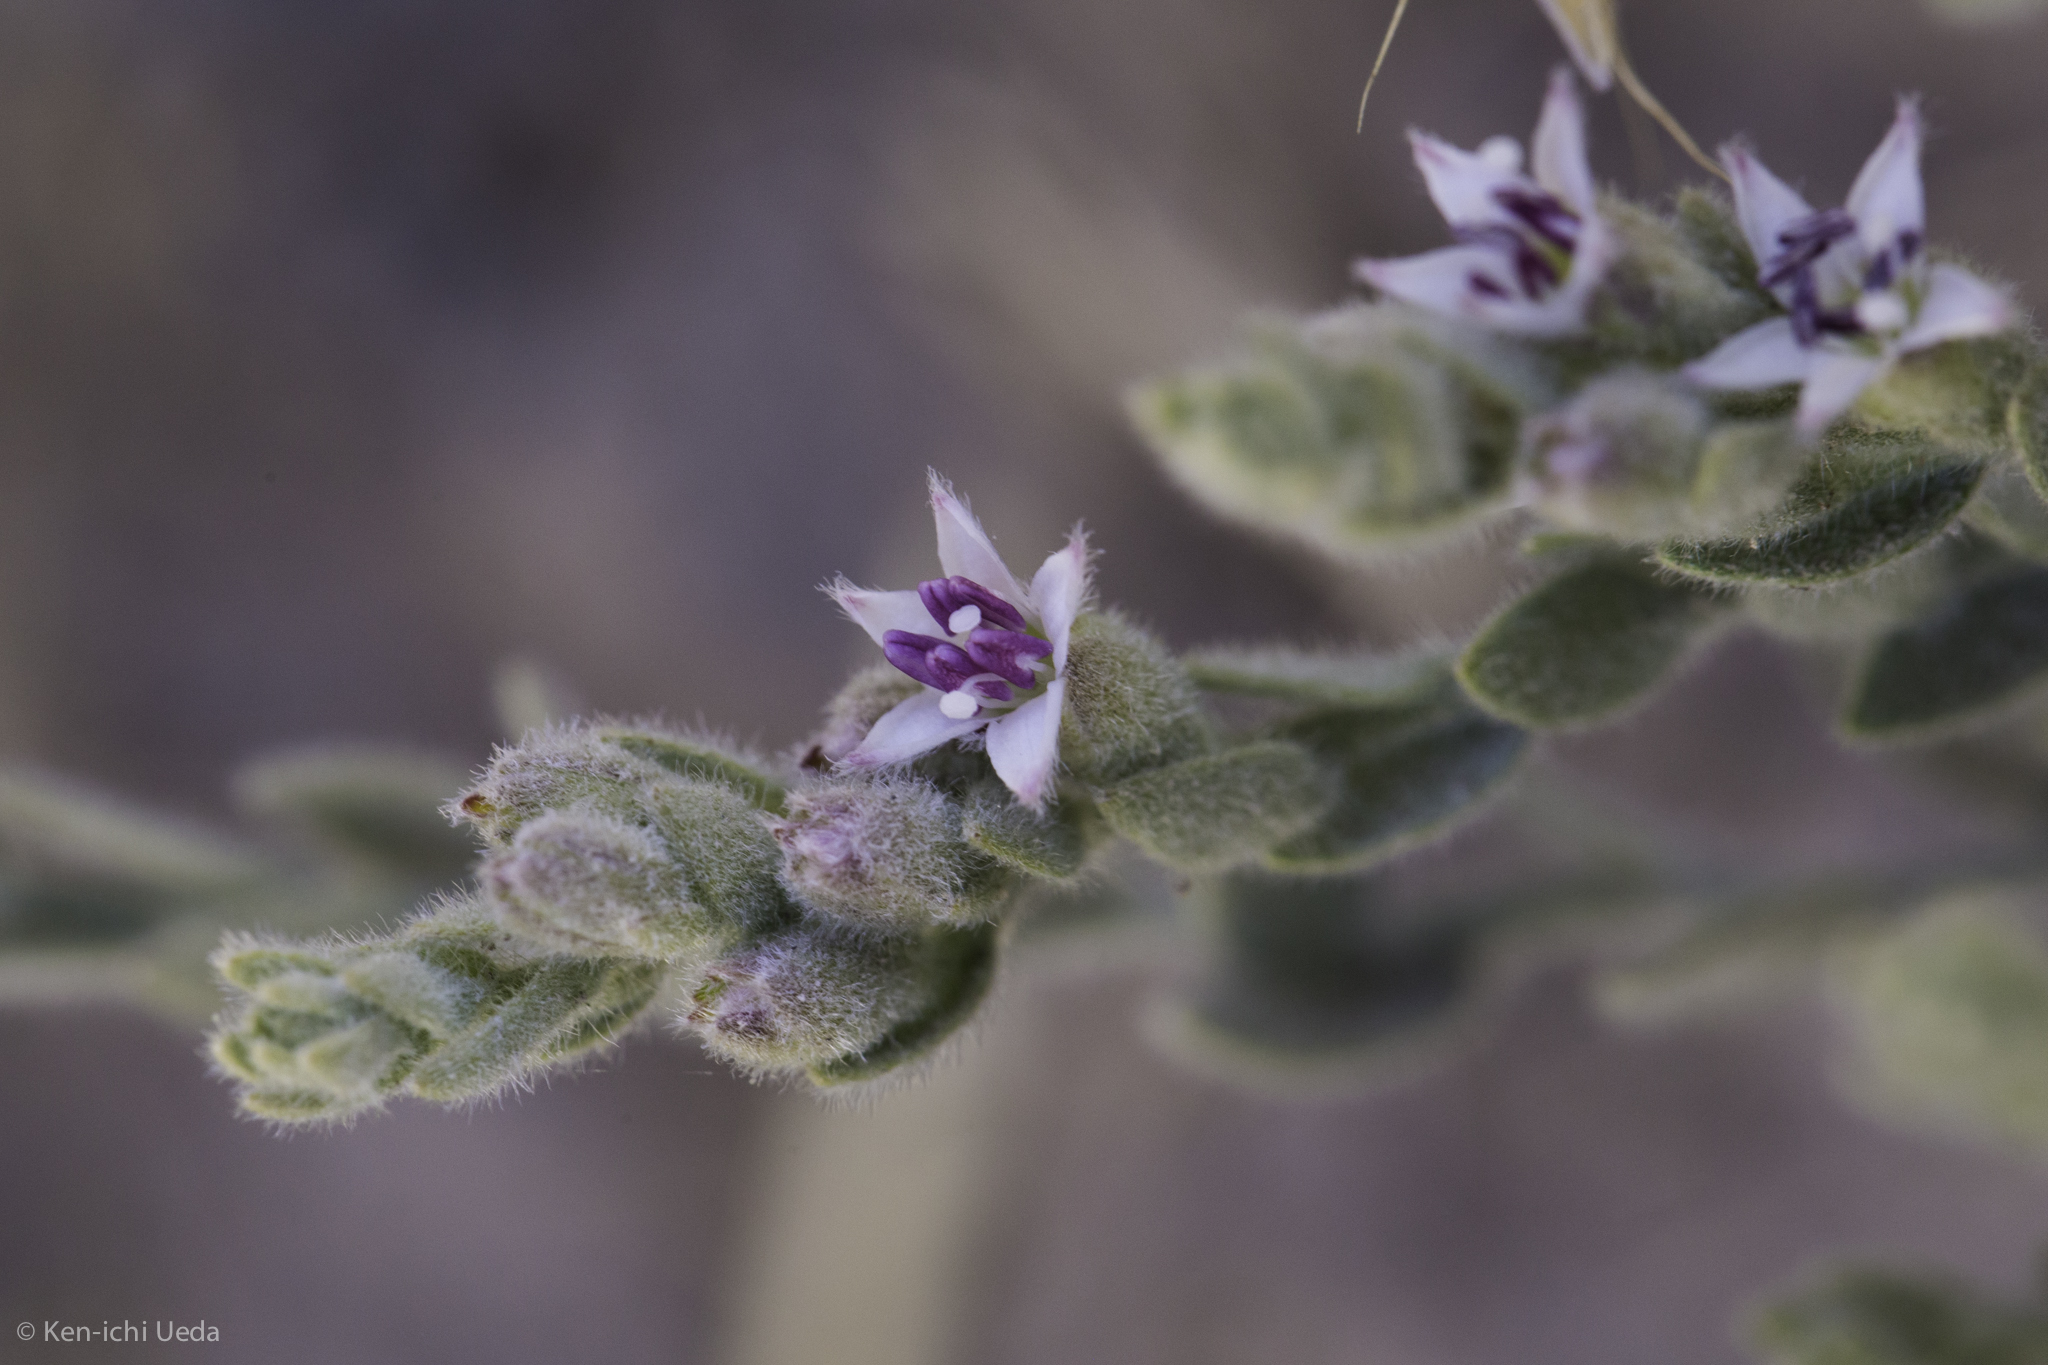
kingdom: Plantae
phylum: Tracheophyta
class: Magnoliopsida
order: Solanales
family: Convolvulaceae
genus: Cressa
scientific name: Cressa truxillensis
